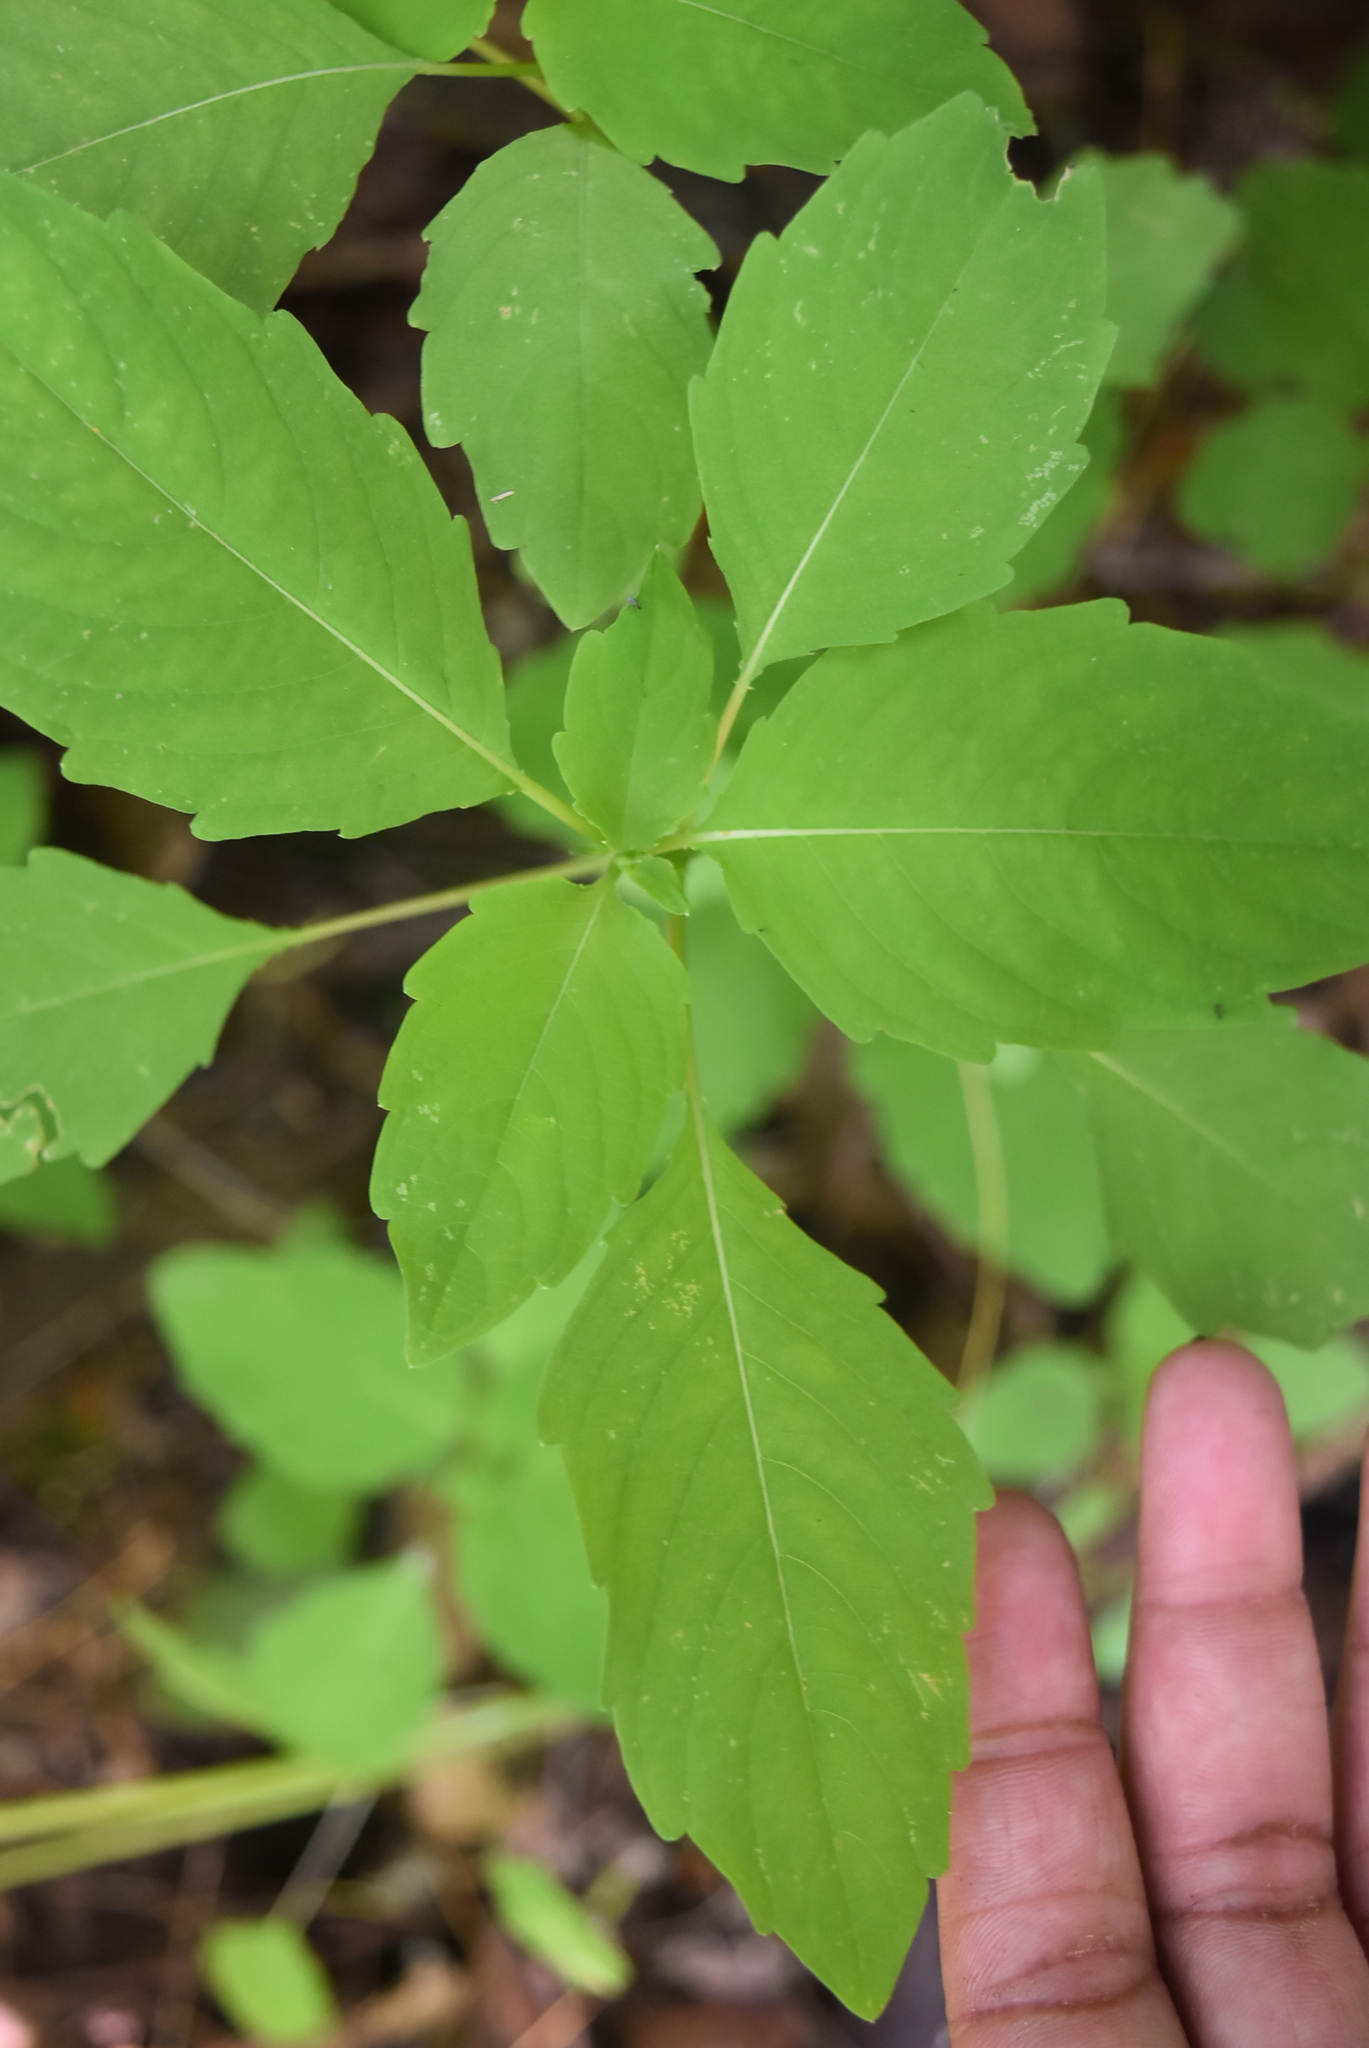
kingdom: Plantae
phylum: Tracheophyta
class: Magnoliopsida
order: Ericales
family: Balsaminaceae
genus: Impatiens
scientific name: Impatiens capensis
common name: Orange balsam
